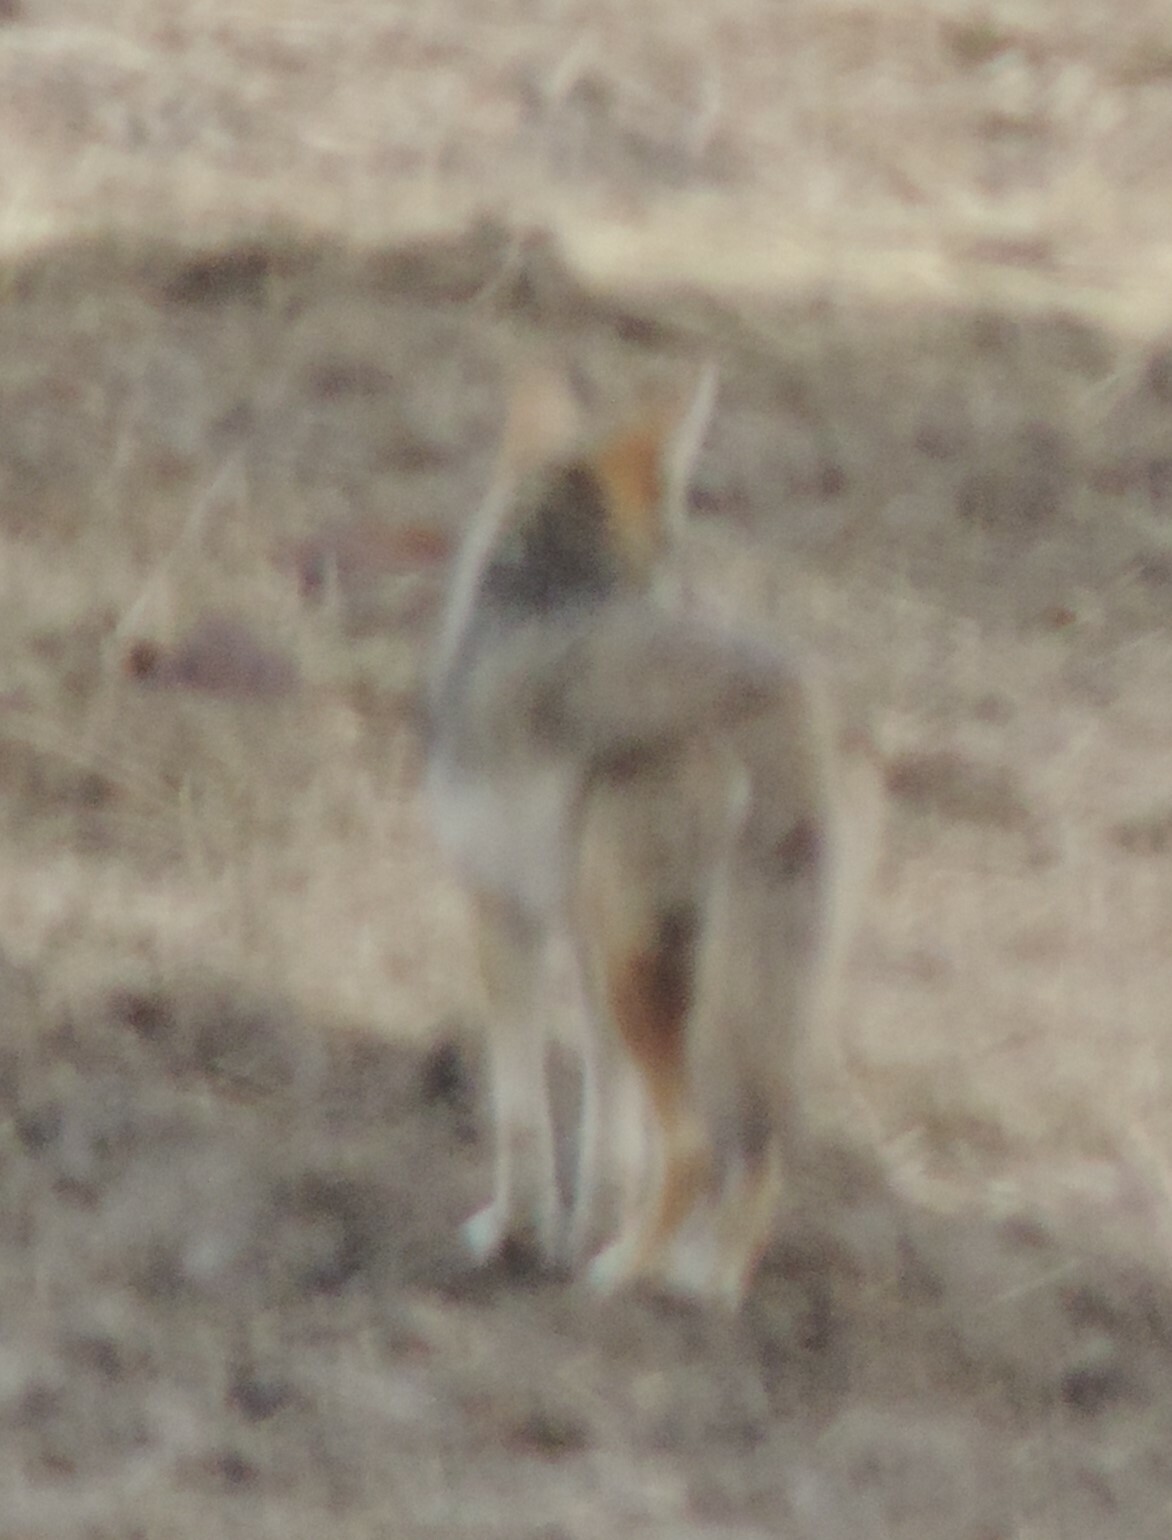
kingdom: Animalia
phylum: Chordata
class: Mammalia
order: Carnivora
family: Canidae
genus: Canis
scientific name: Canis latrans
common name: Coyote
